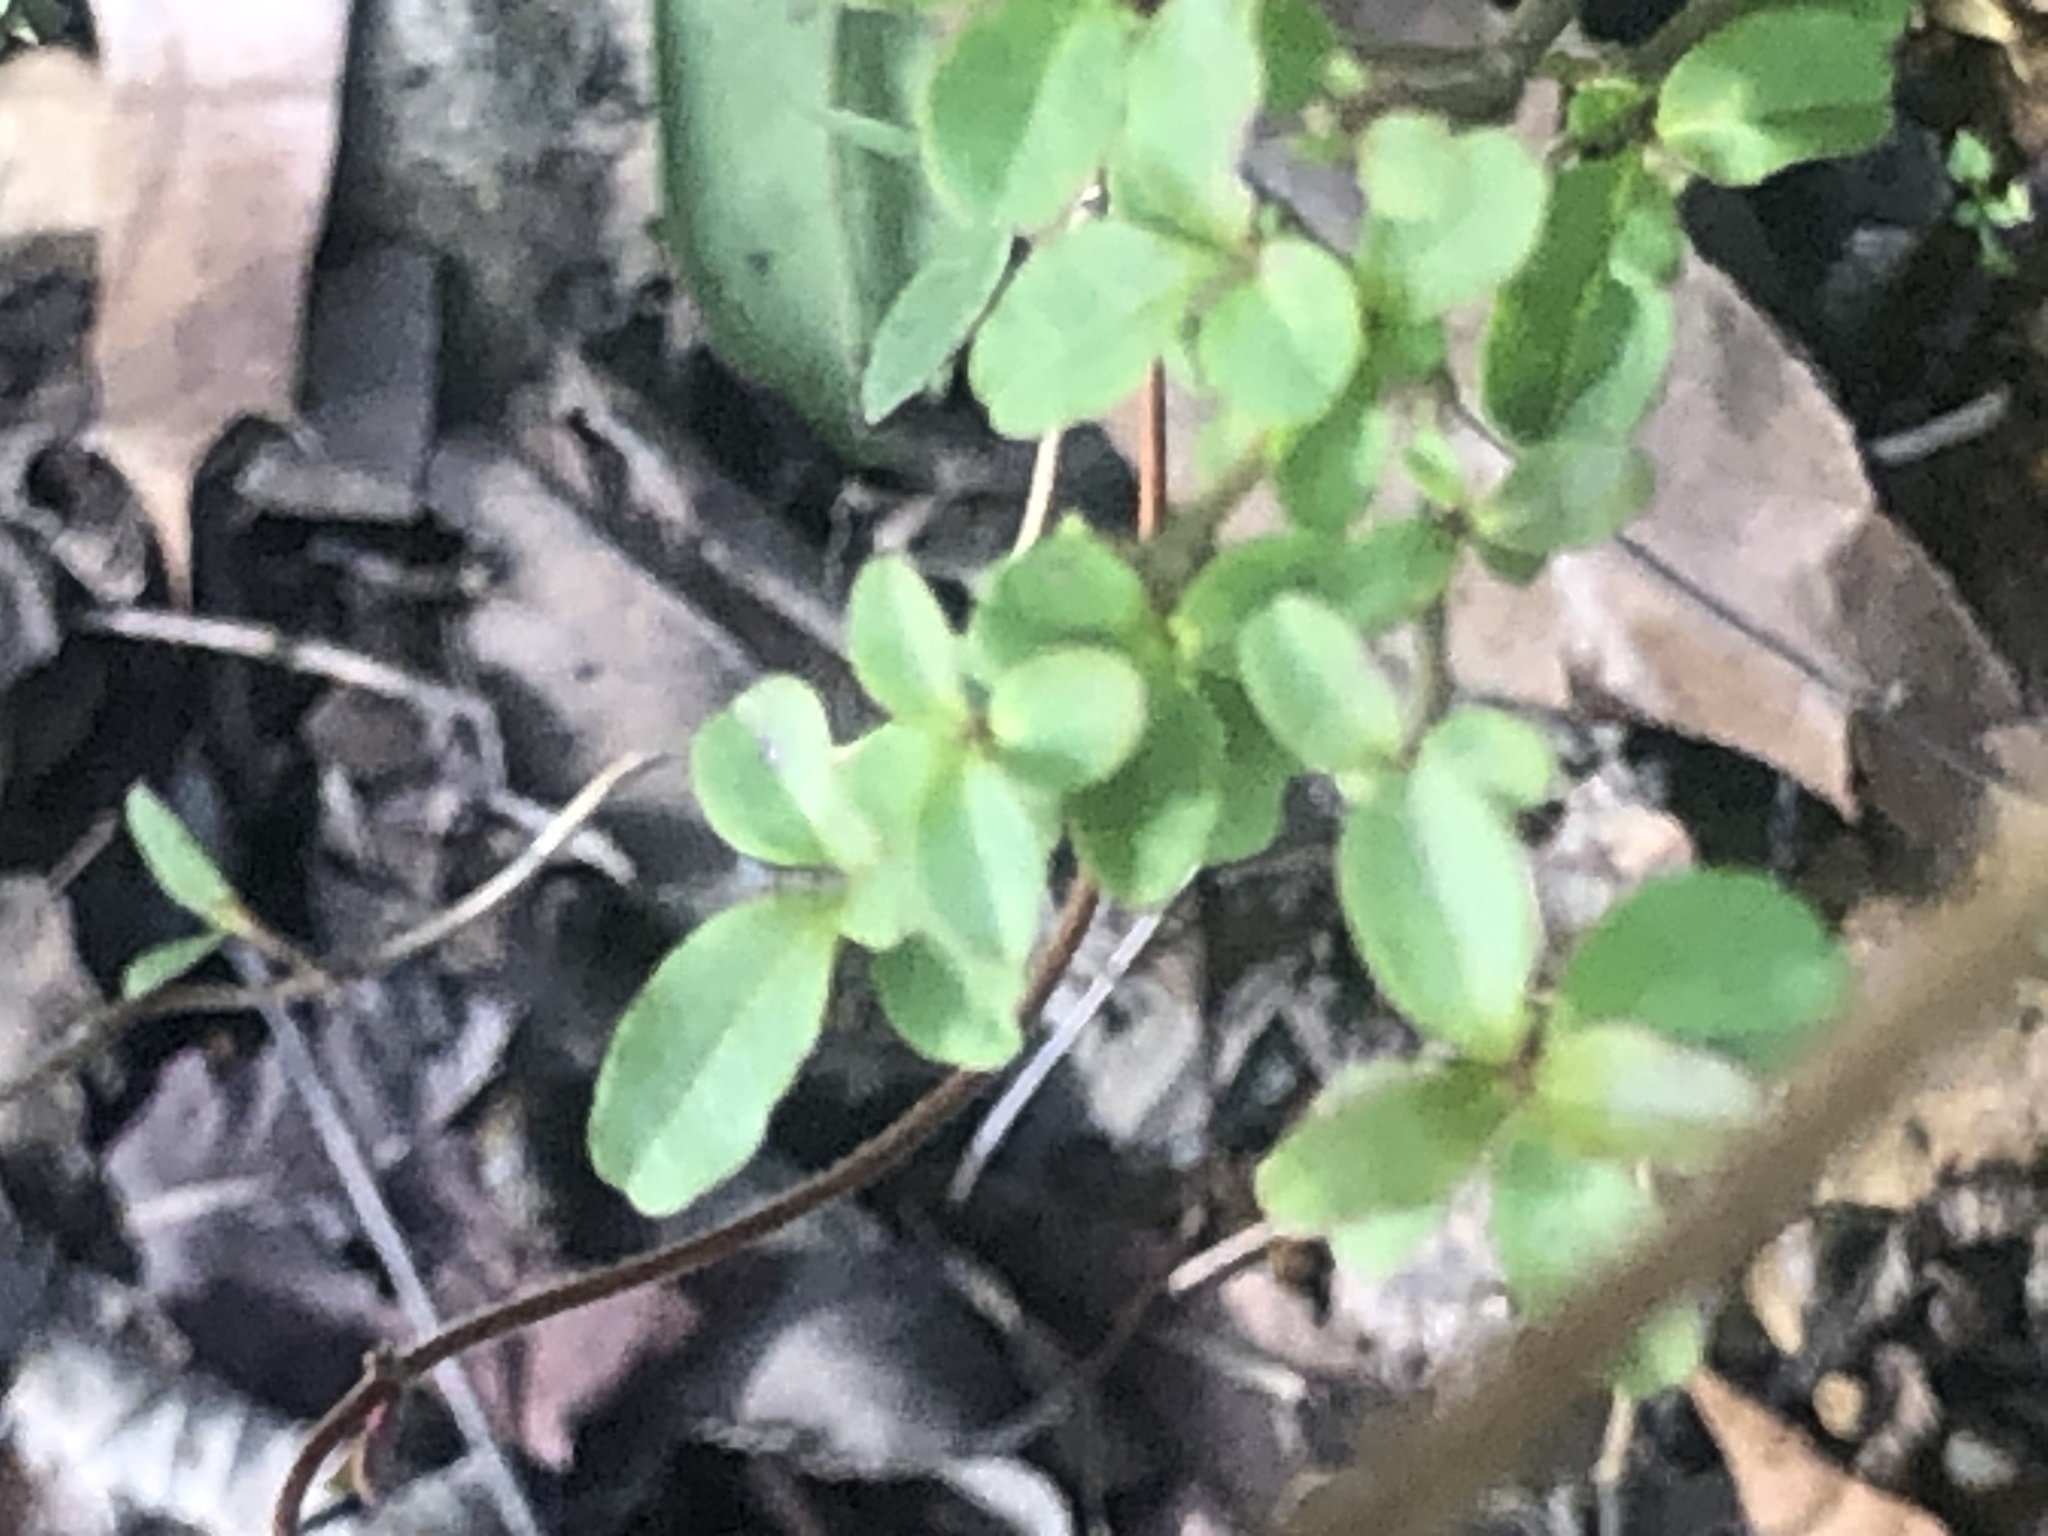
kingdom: Plantae
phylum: Tracheophyta
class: Magnoliopsida
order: Lamiales
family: Oleaceae
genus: Ligustrum
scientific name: Ligustrum sinense
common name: Chinese privet
